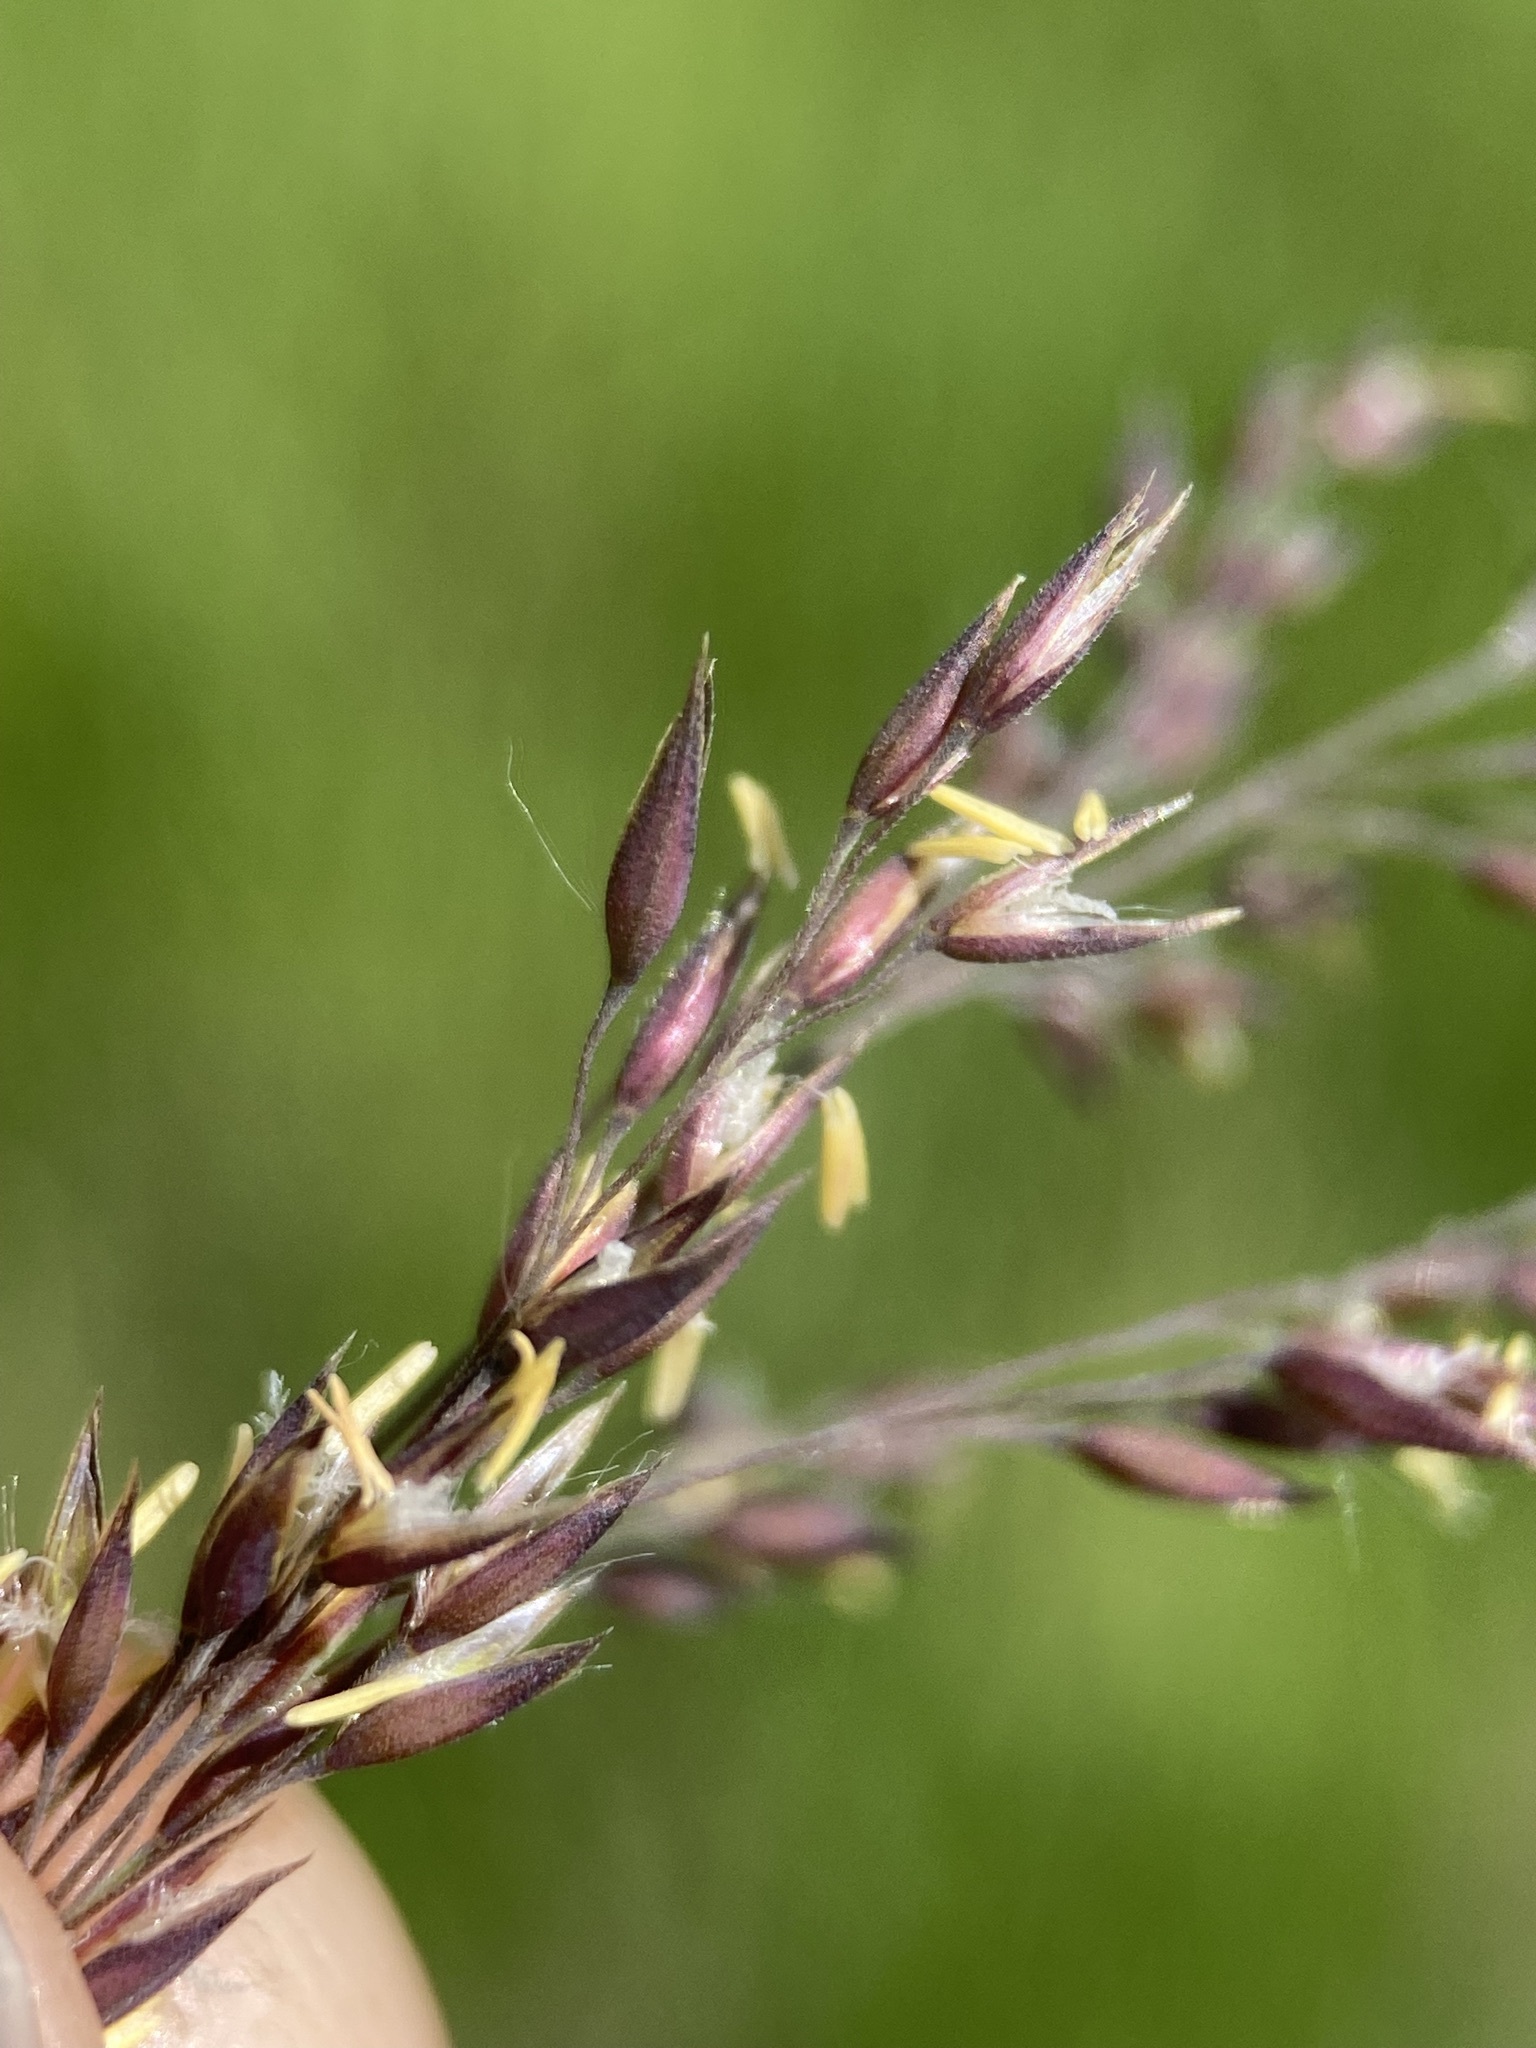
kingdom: Plantae
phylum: Tracheophyta
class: Liliopsida
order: Poales
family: Poaceae
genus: Calamagrostis
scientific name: Calamagrostis canadensis
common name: Canada bluejoint
